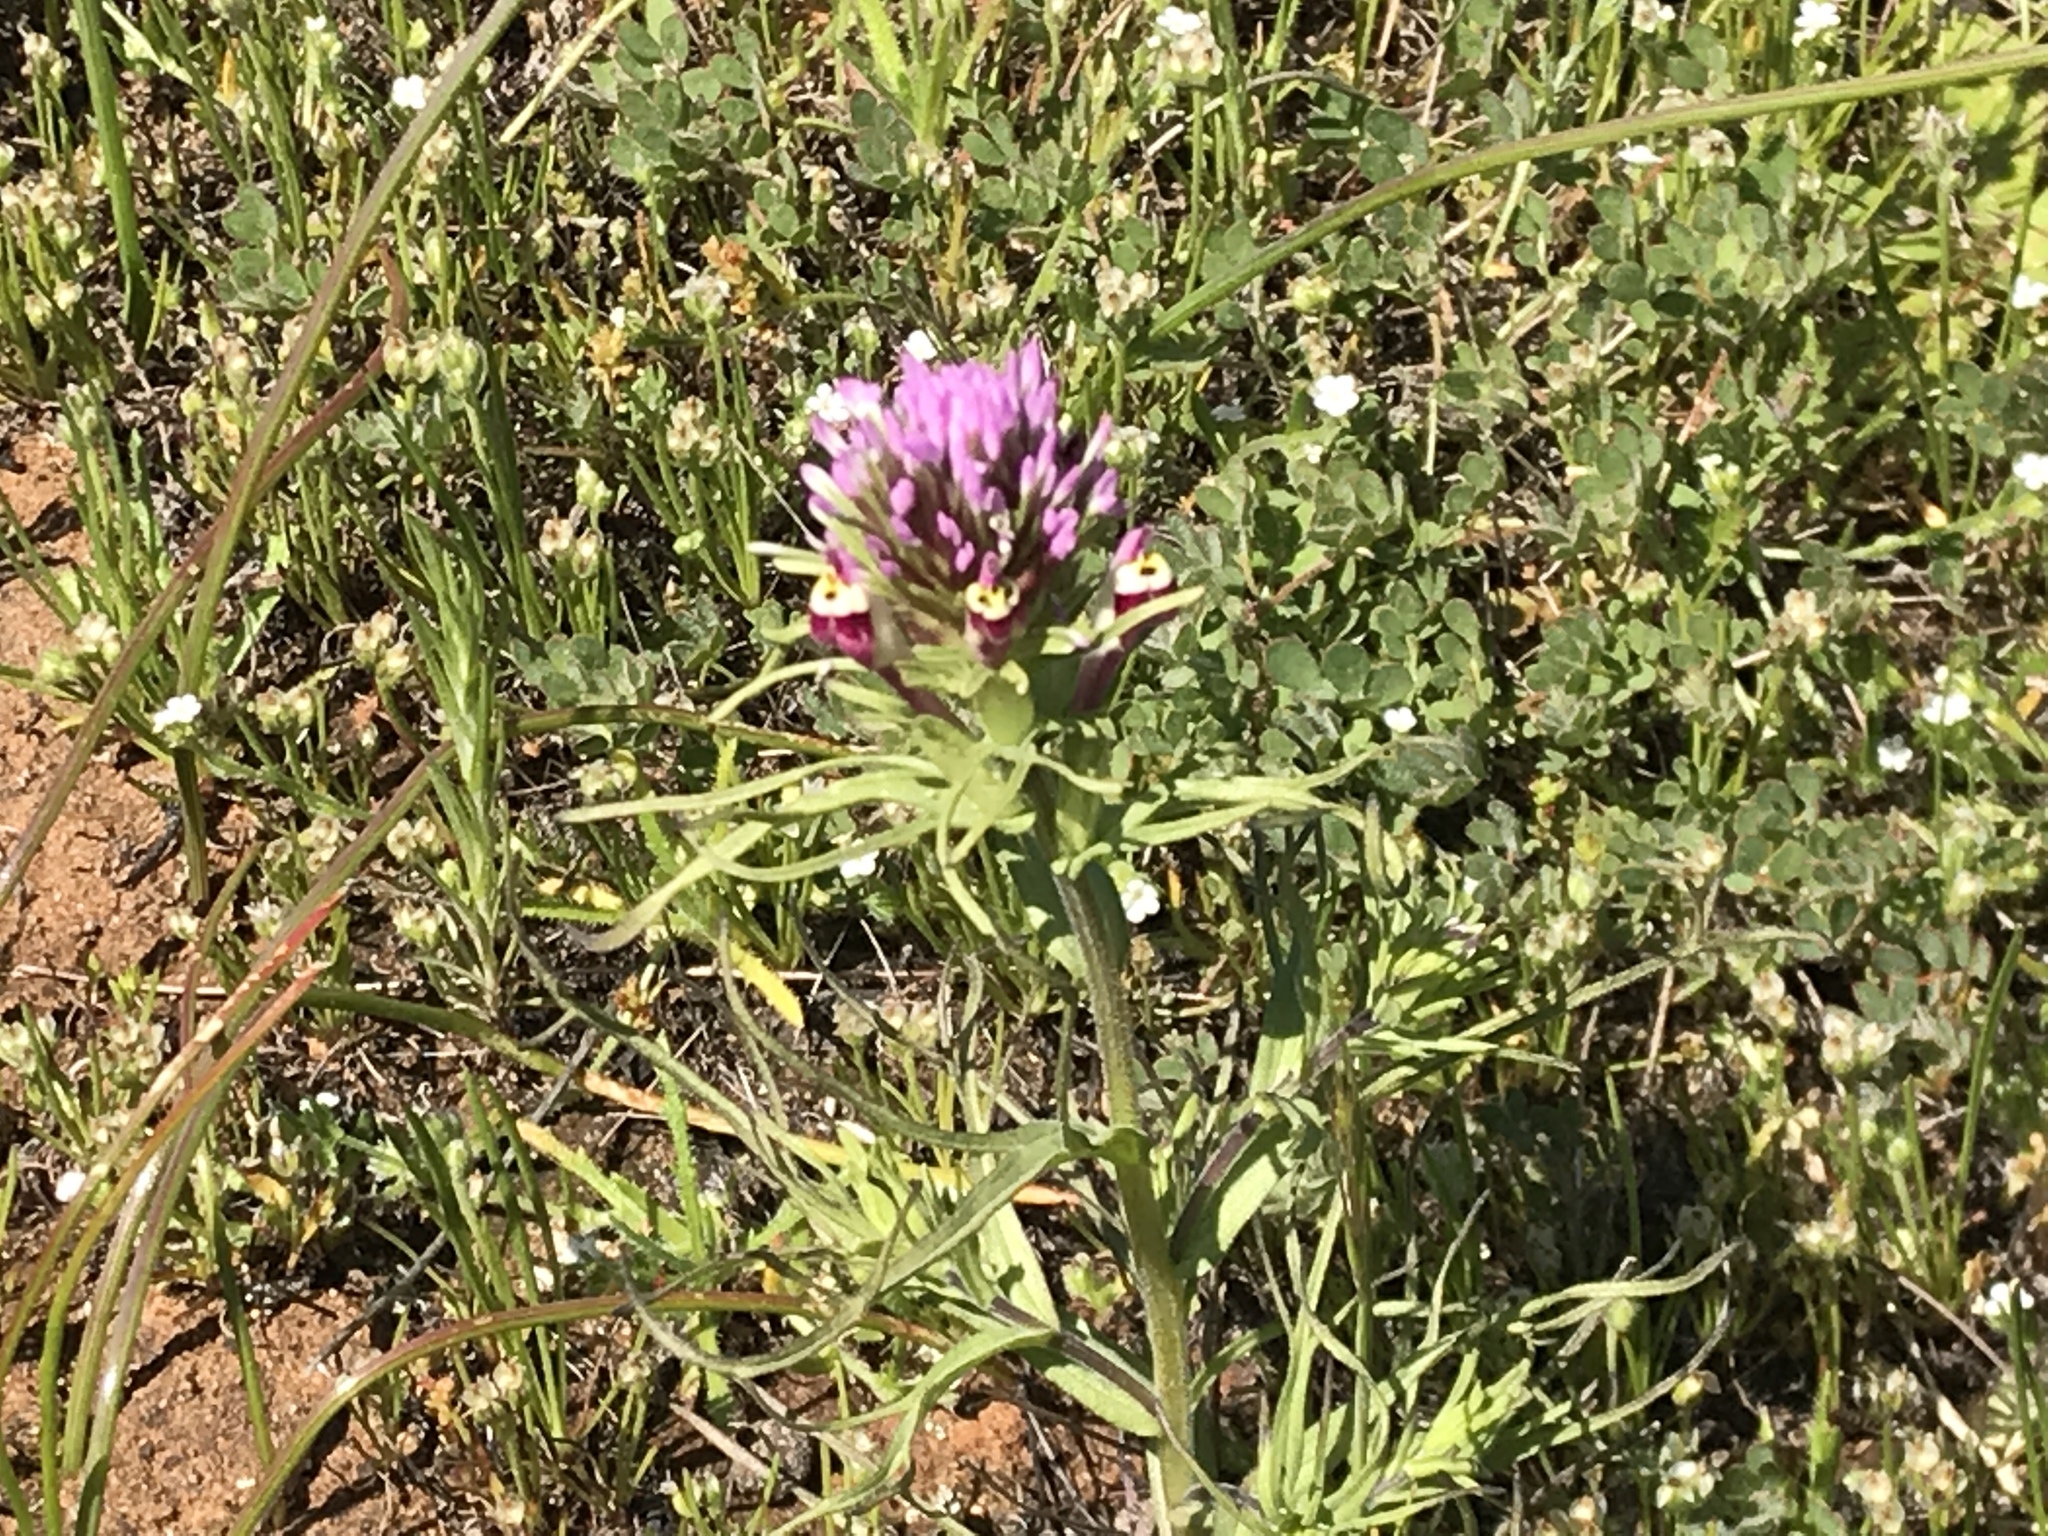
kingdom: Plantae
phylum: Tracheophyta
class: Magnoliopsida
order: Lamiales
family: Orobanchaceae
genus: Castilleja
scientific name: Castilleja densiflora
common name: Dense-flower indian paintbrush
